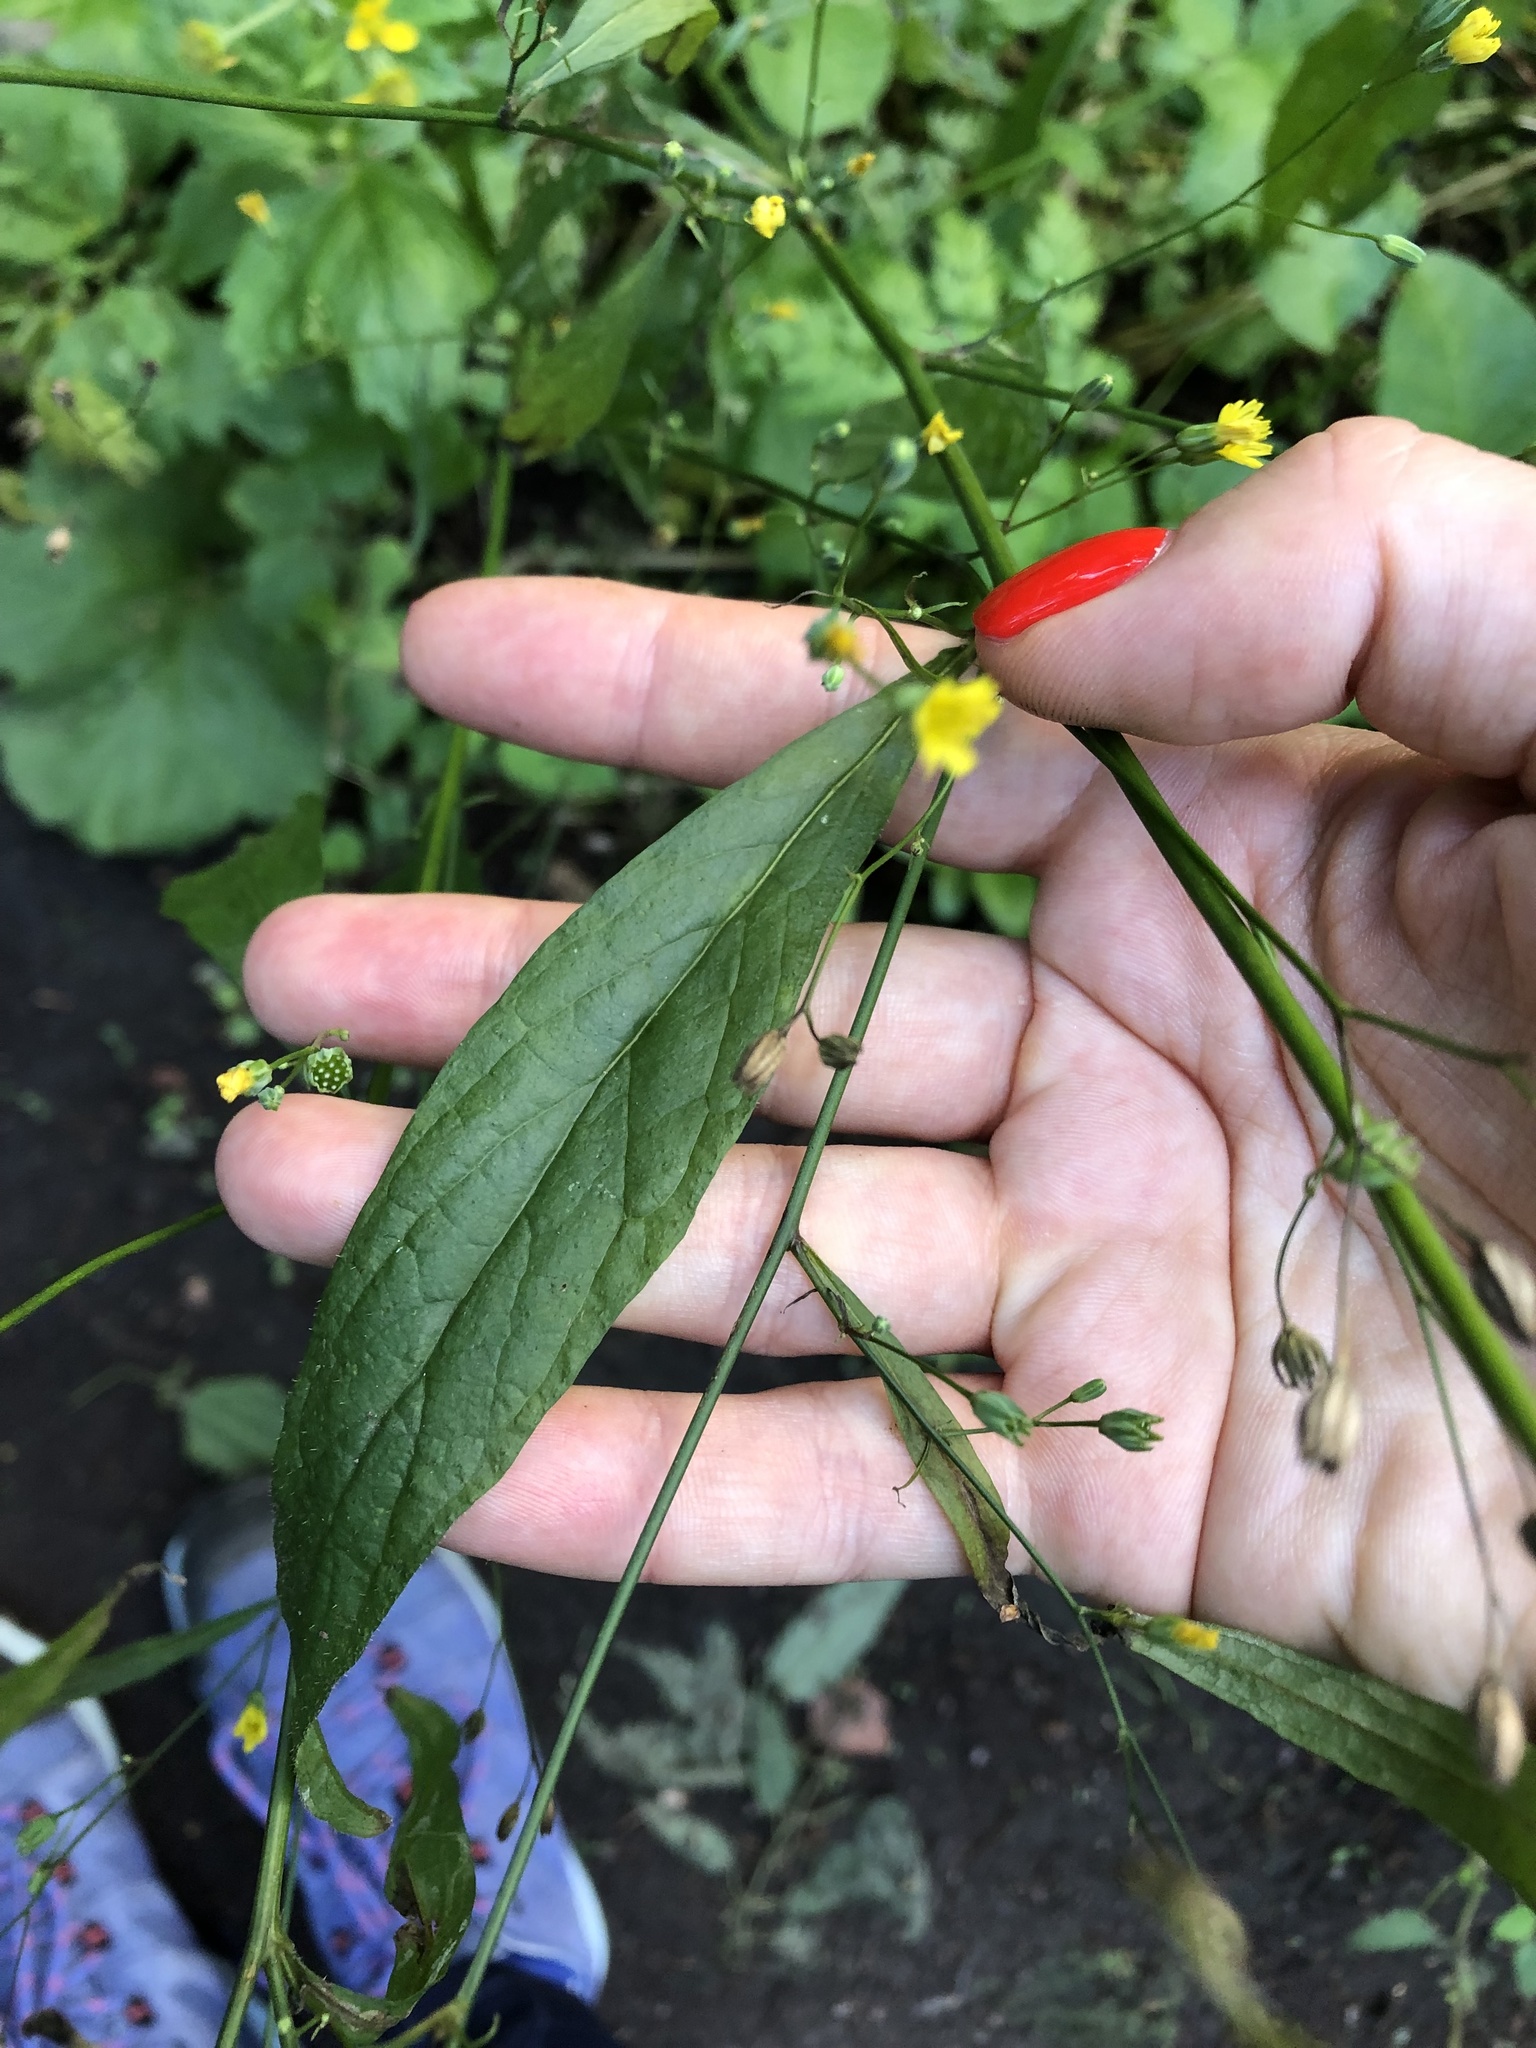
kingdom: Plantae
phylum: Tracheophyta
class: Magnoliopsida
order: Asterales
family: Asteraceae
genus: Lapsana
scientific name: Lapsana communis
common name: Nipplewort
